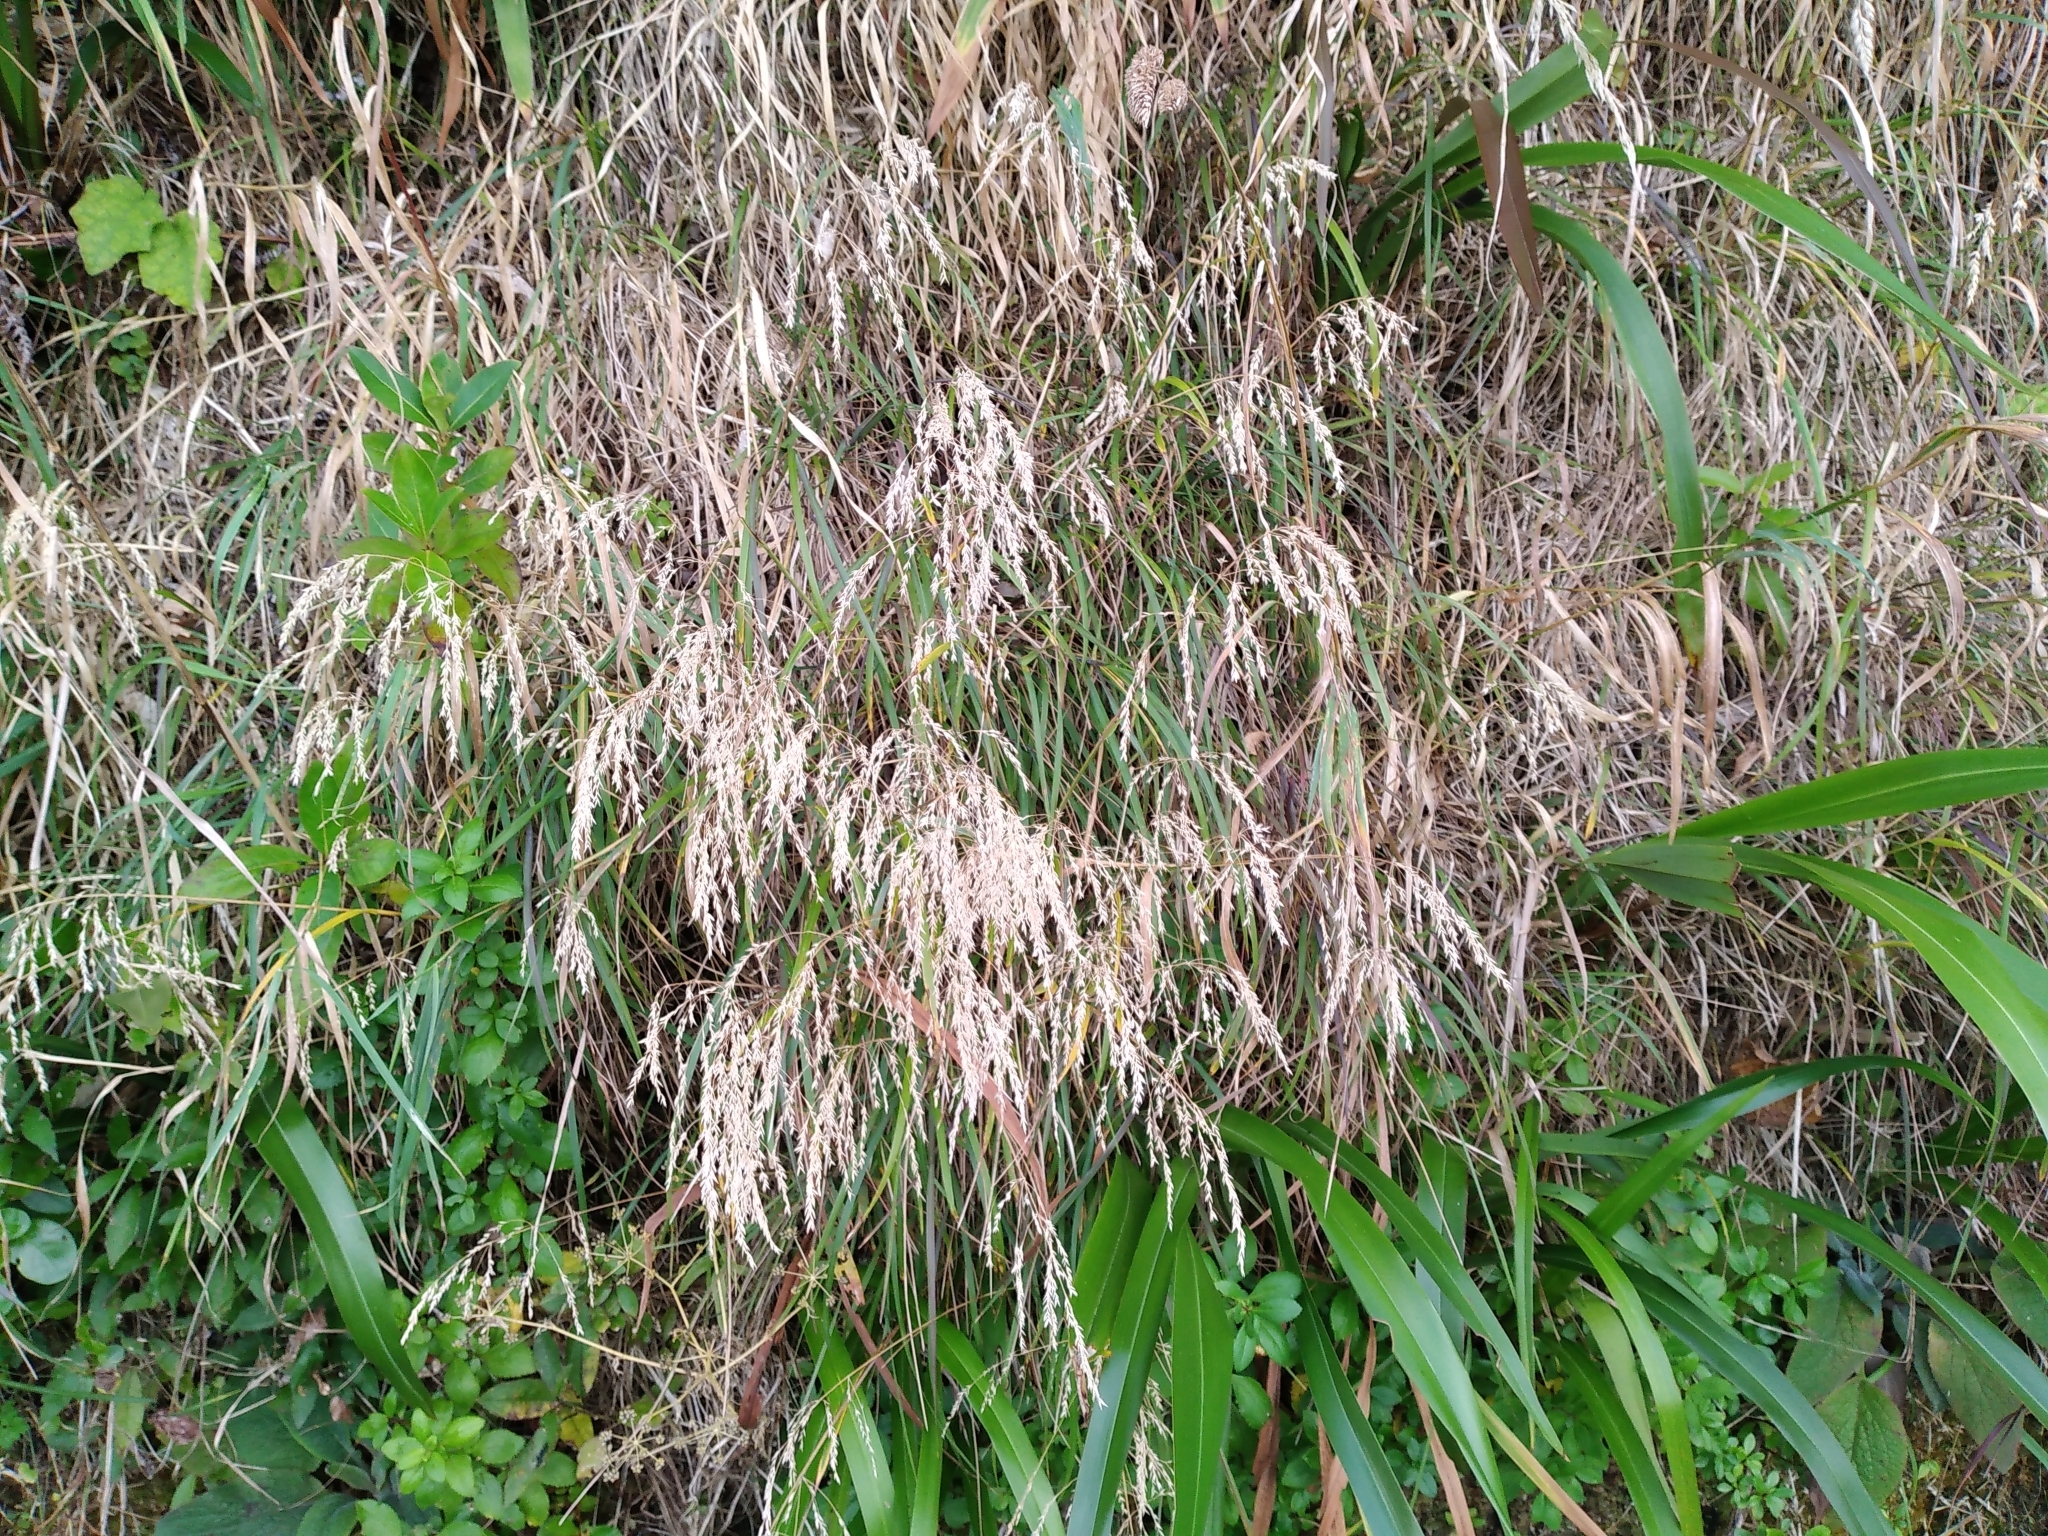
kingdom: Plantae
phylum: Tracheophyta
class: Liliopsida
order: Poales
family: Poaceae
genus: Poa
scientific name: Poa anceps
